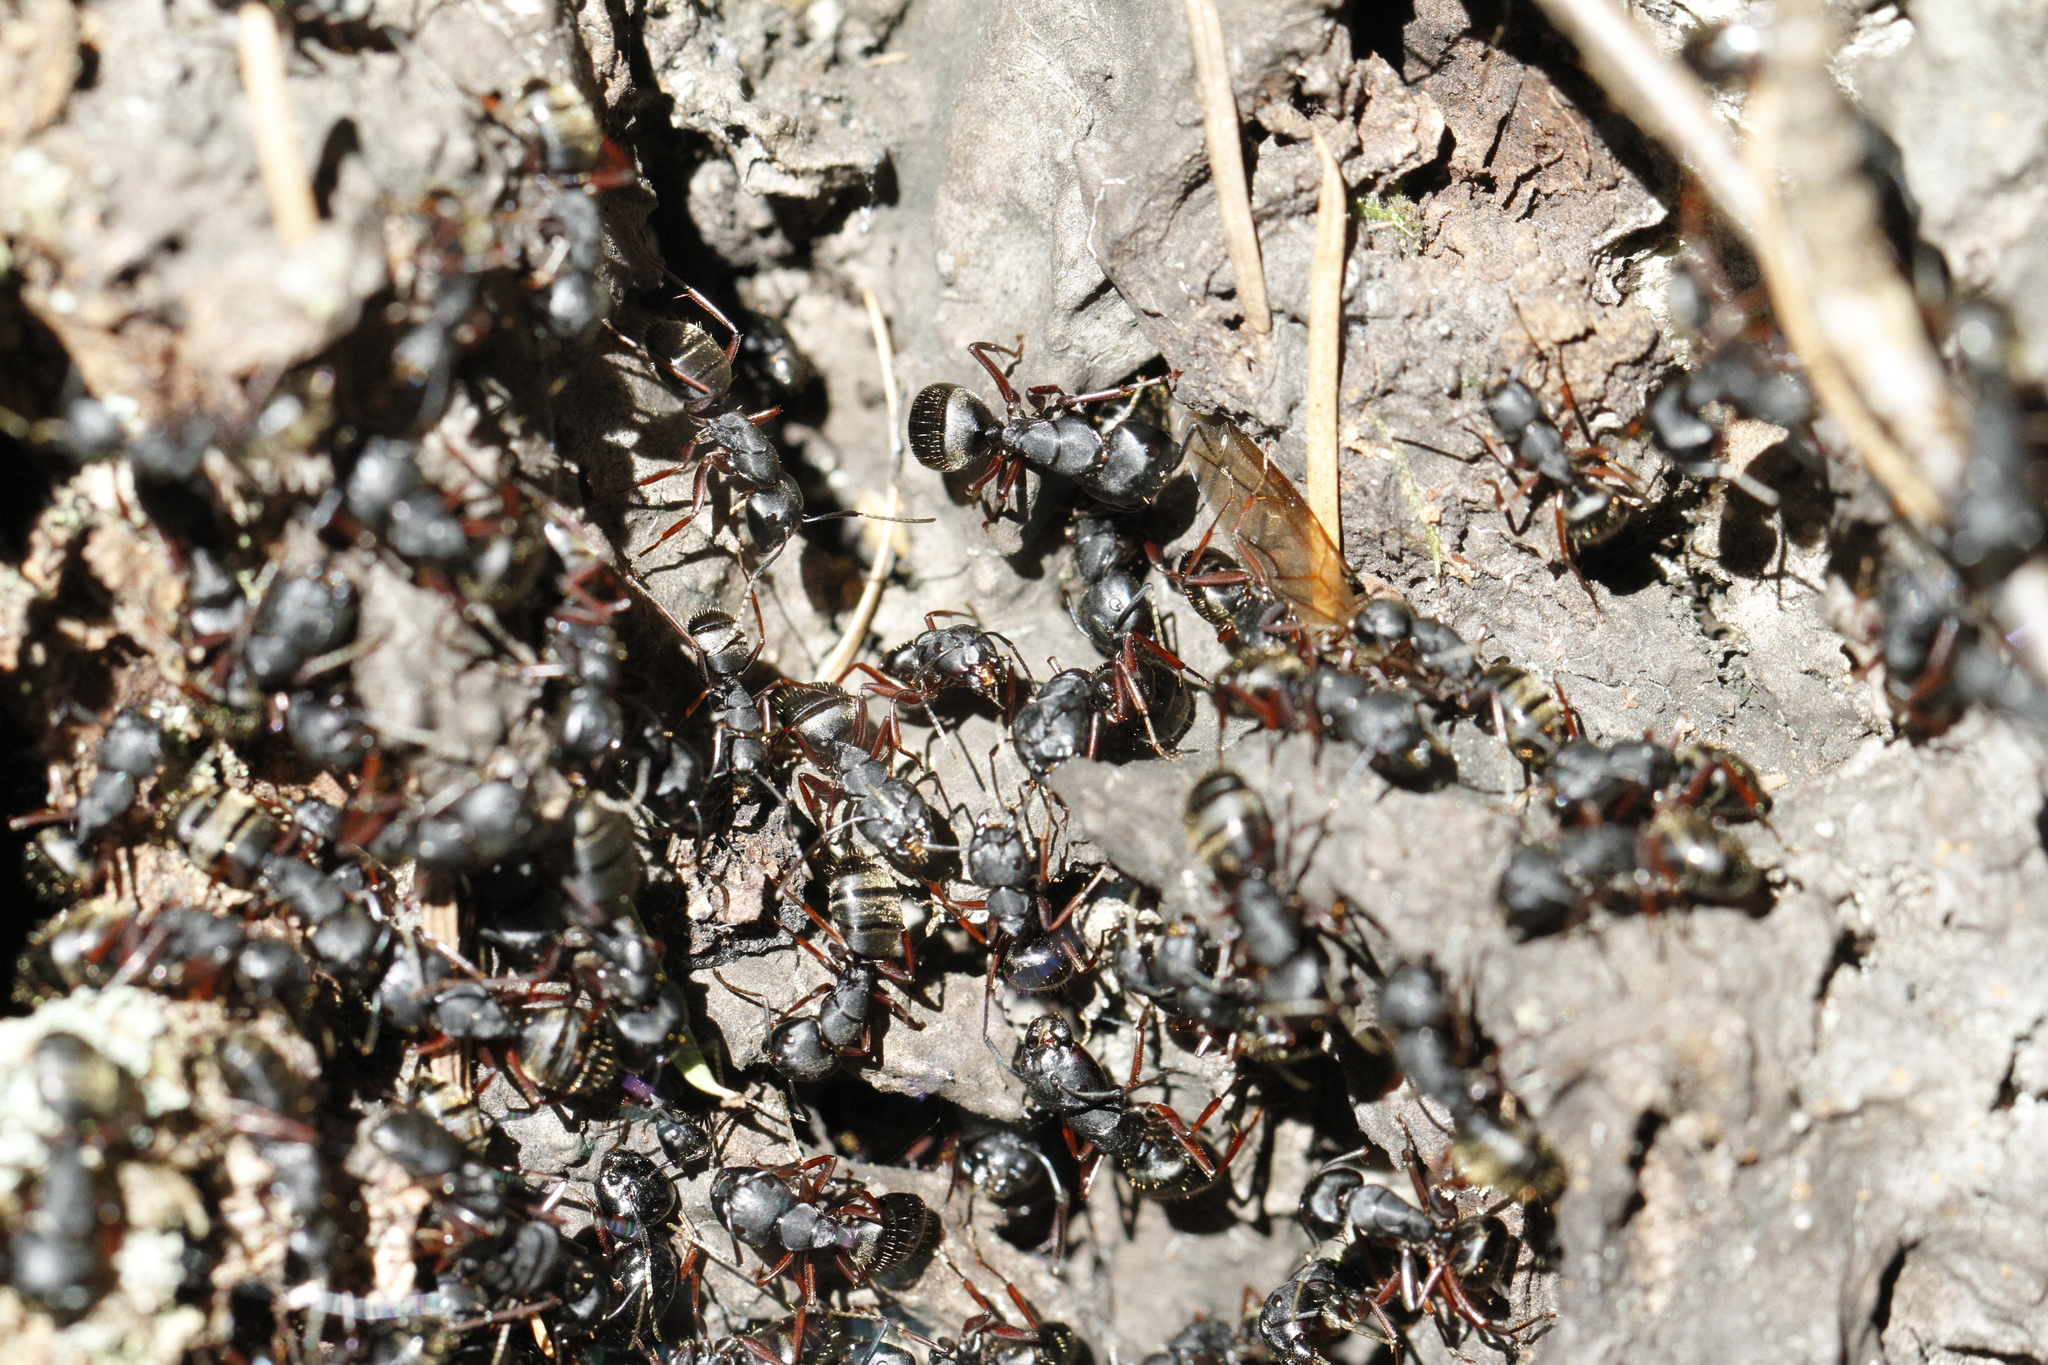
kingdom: Animalia
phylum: Arthropoda
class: Insecta
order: Hymenoptera
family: Formicidae
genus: Camponotus
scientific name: Camponotus modoc
